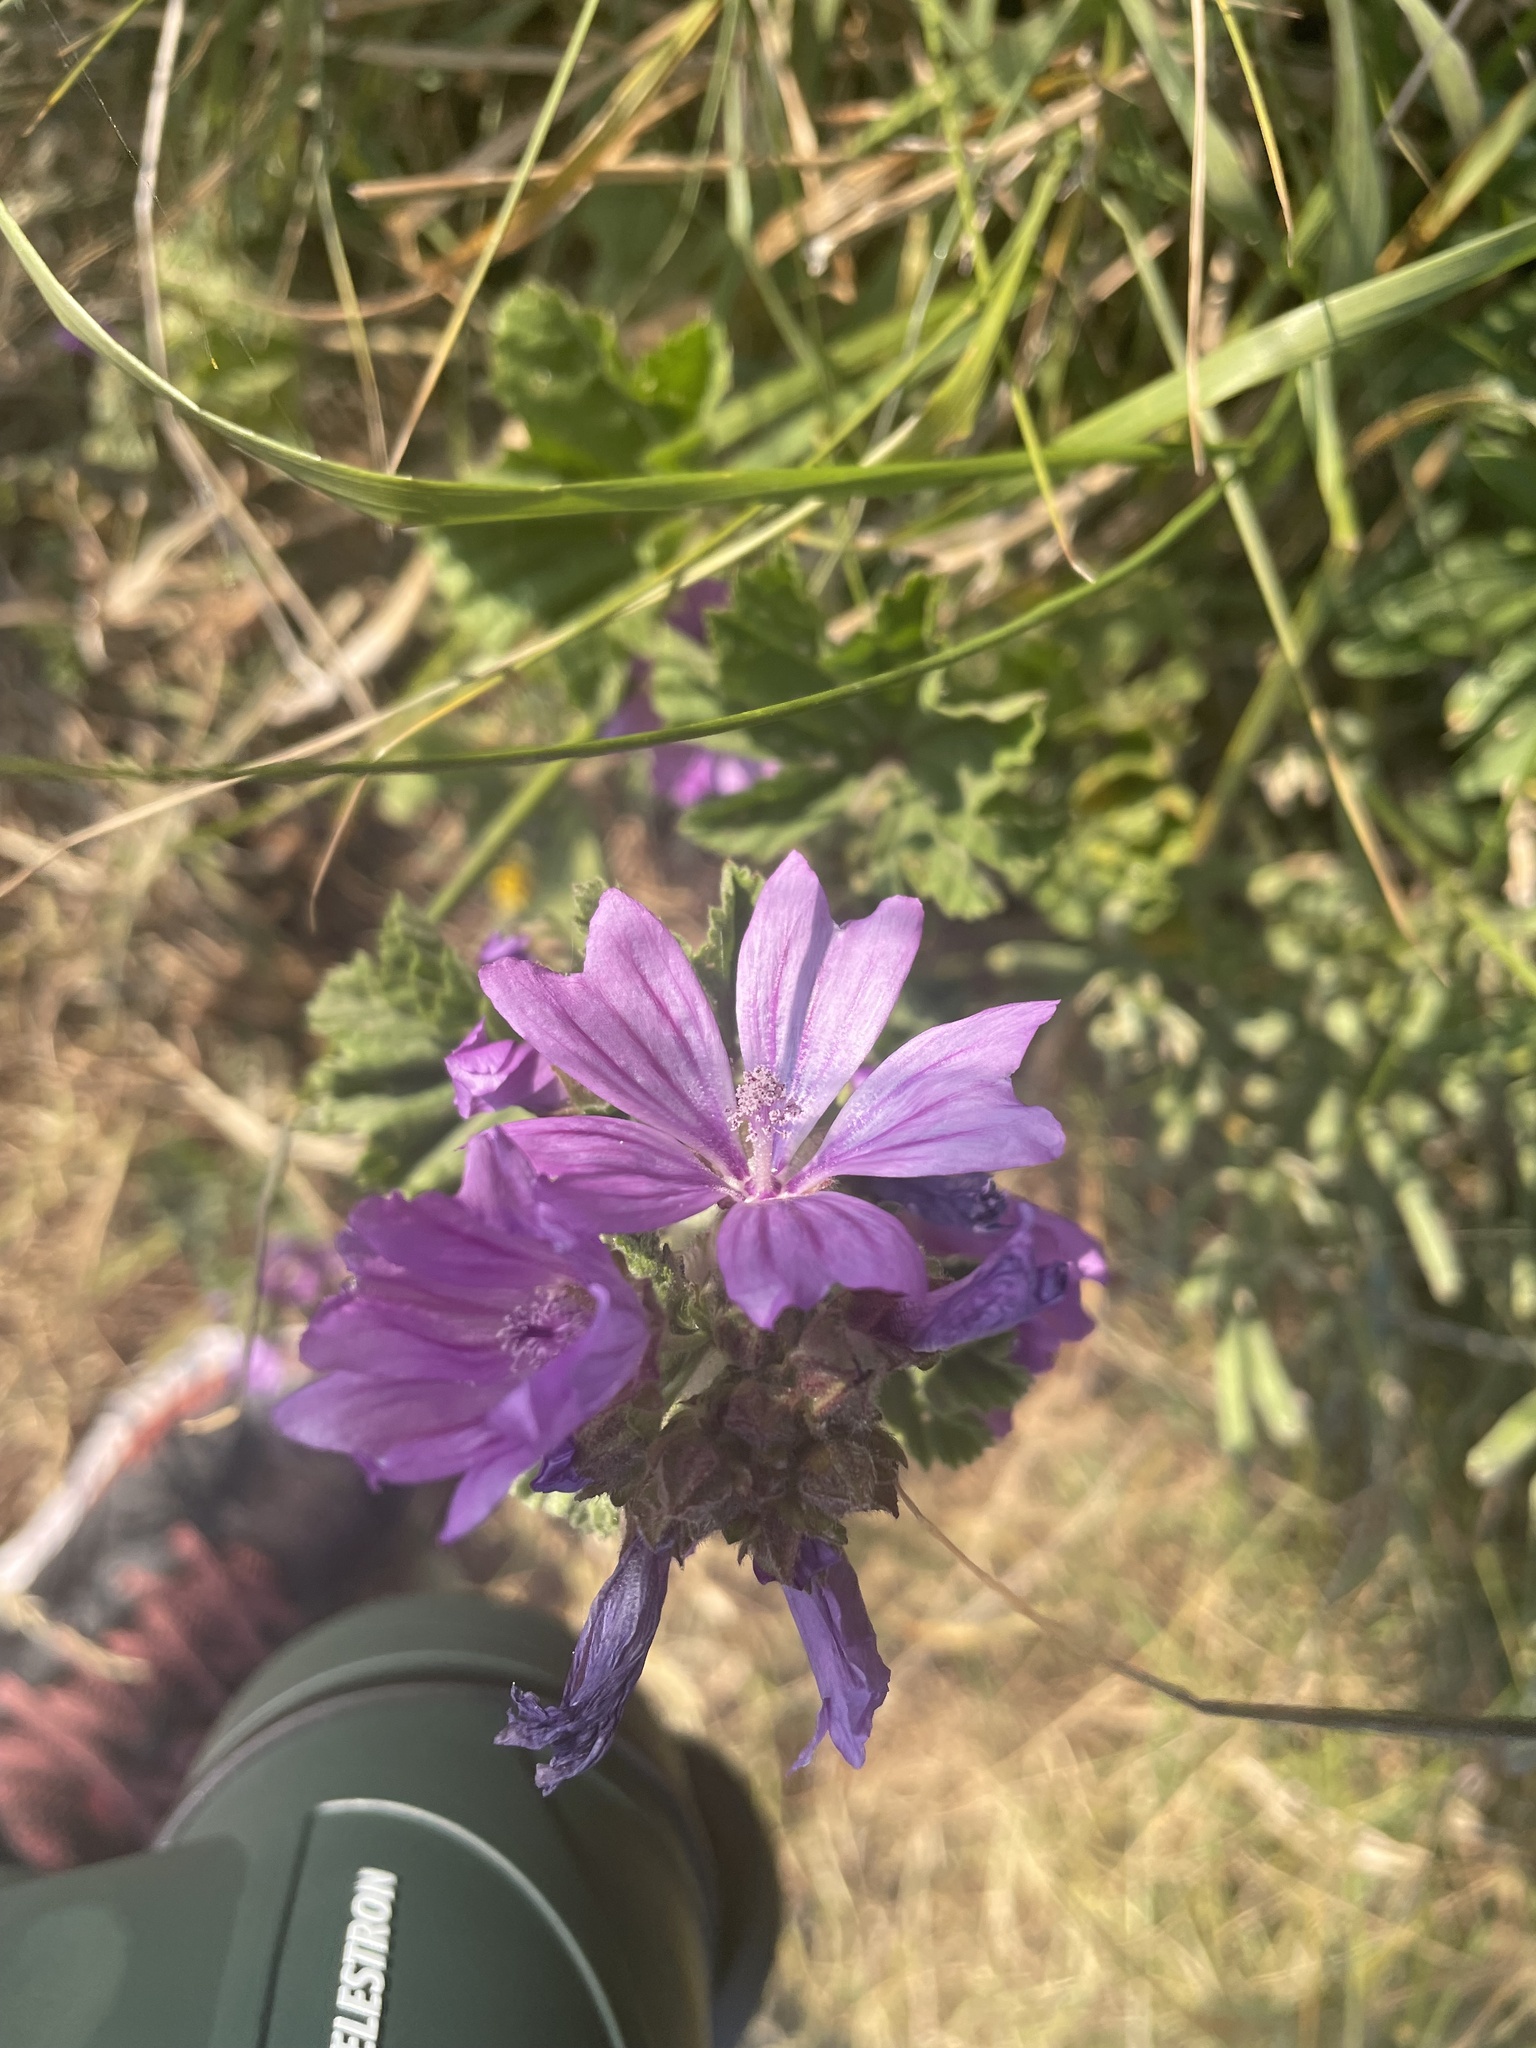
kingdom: Plantae
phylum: Tracheophyta
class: Magnoliopsida
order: Malvales
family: Malvaceae
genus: Malva
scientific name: Malva sylvestris
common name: Common mallow
